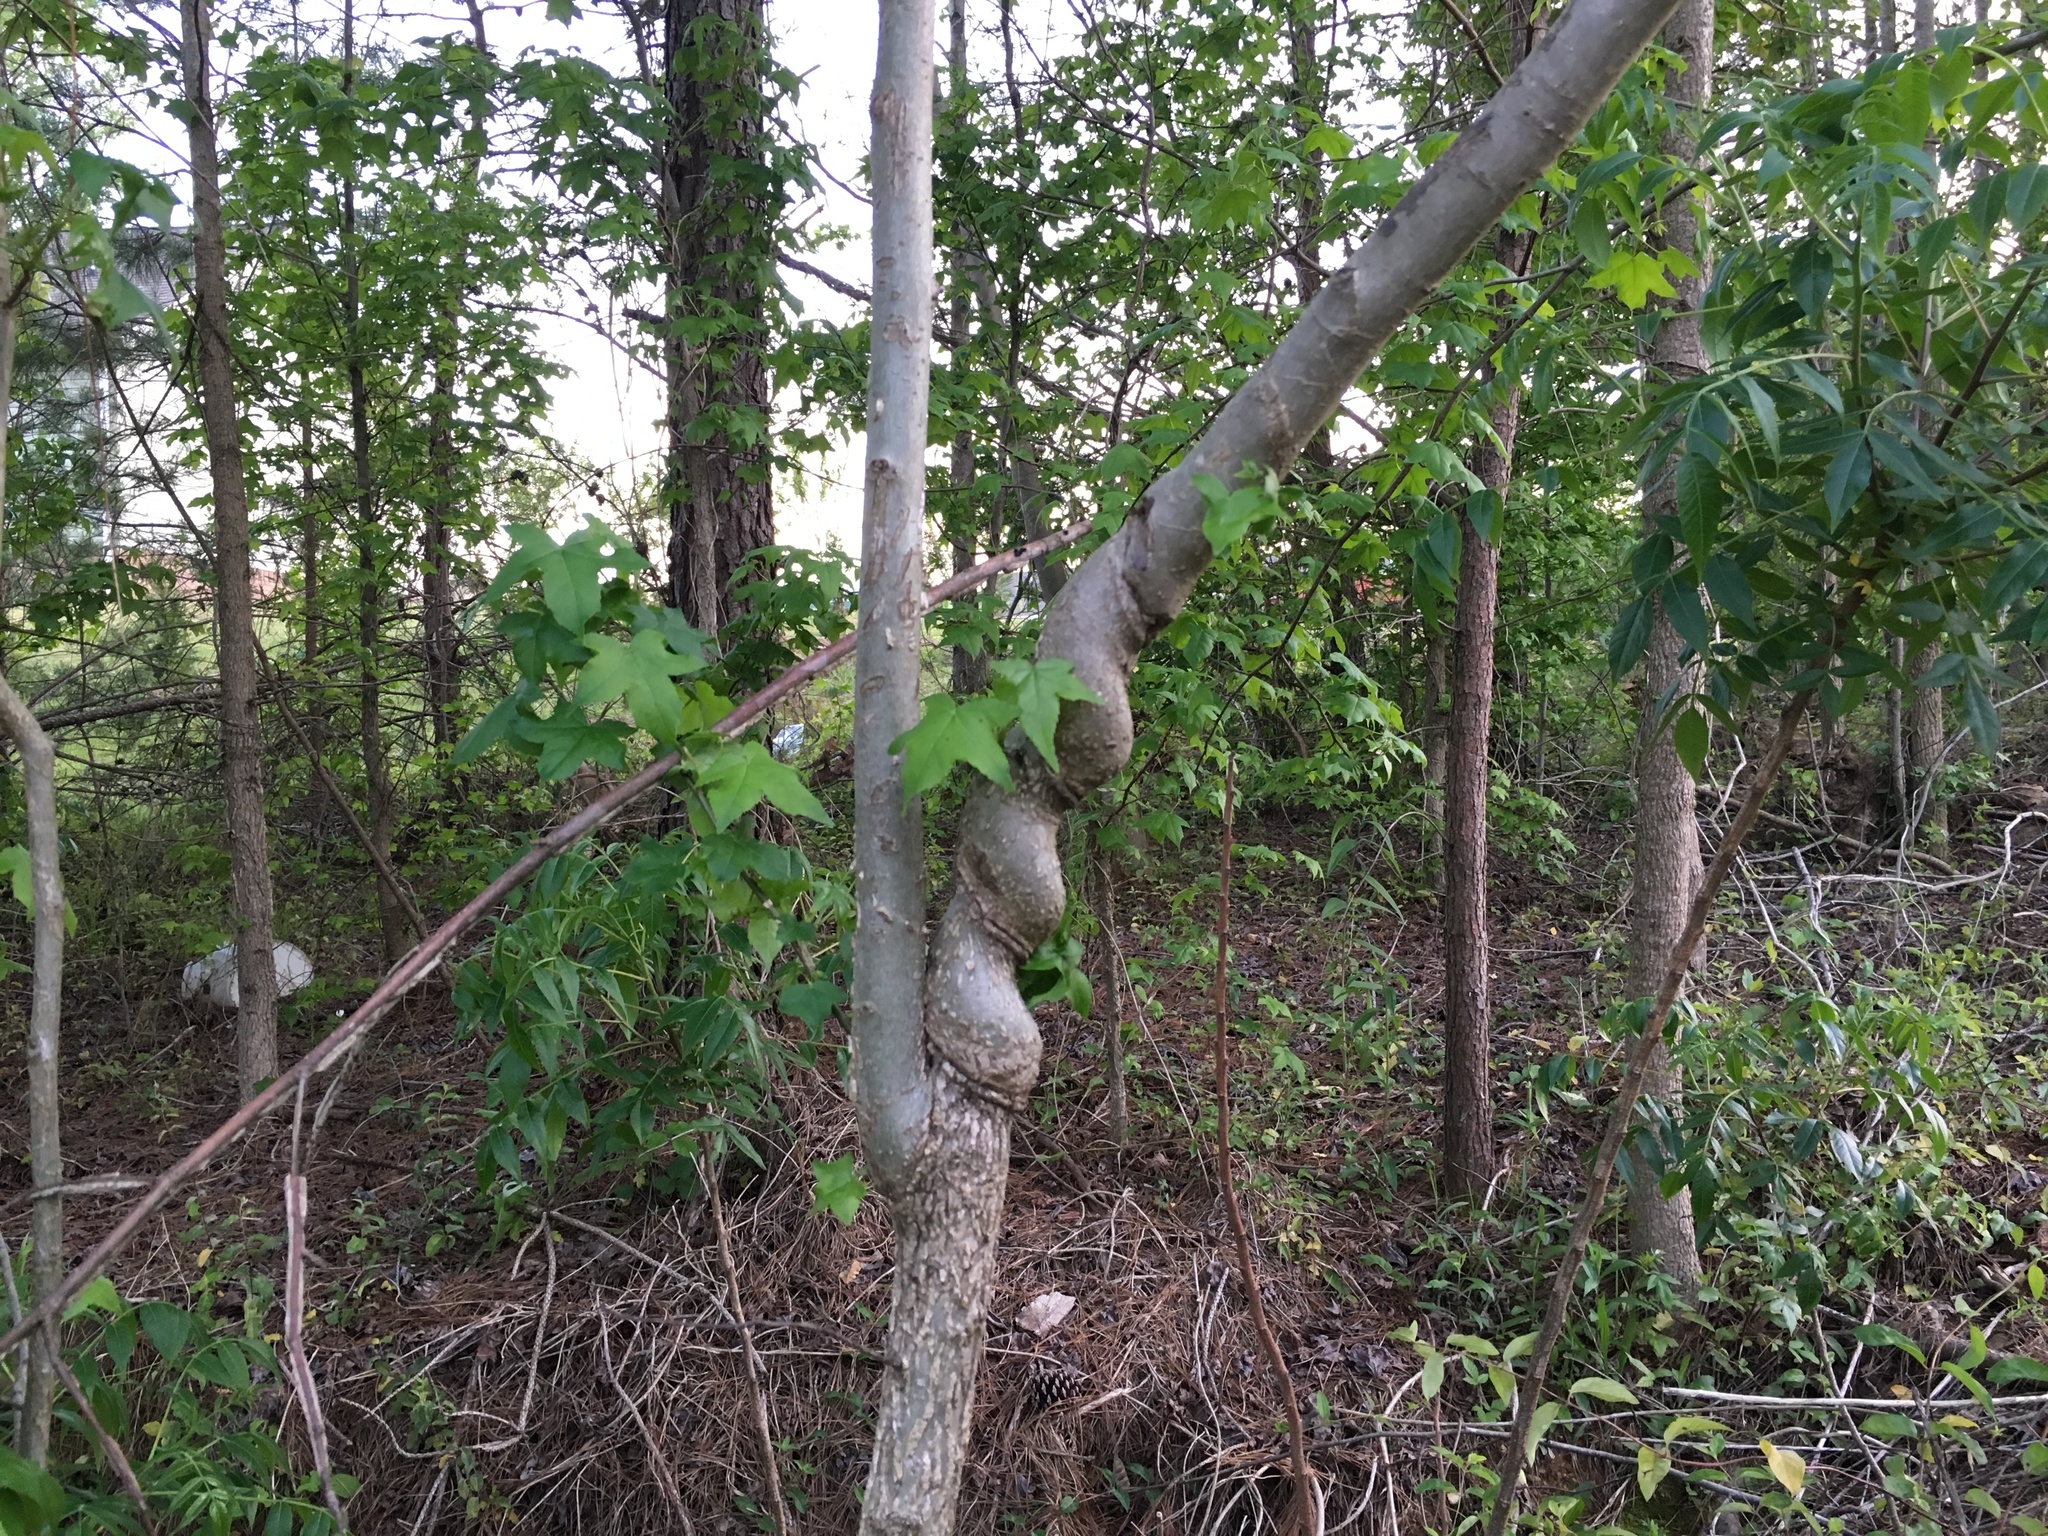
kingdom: Plantae
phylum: Tracheophyta
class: Magnoliopsida
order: Saxifragales
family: Altingiaceae
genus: Liquidambar
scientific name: Liquidambar styraciflua
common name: Sweet gum
